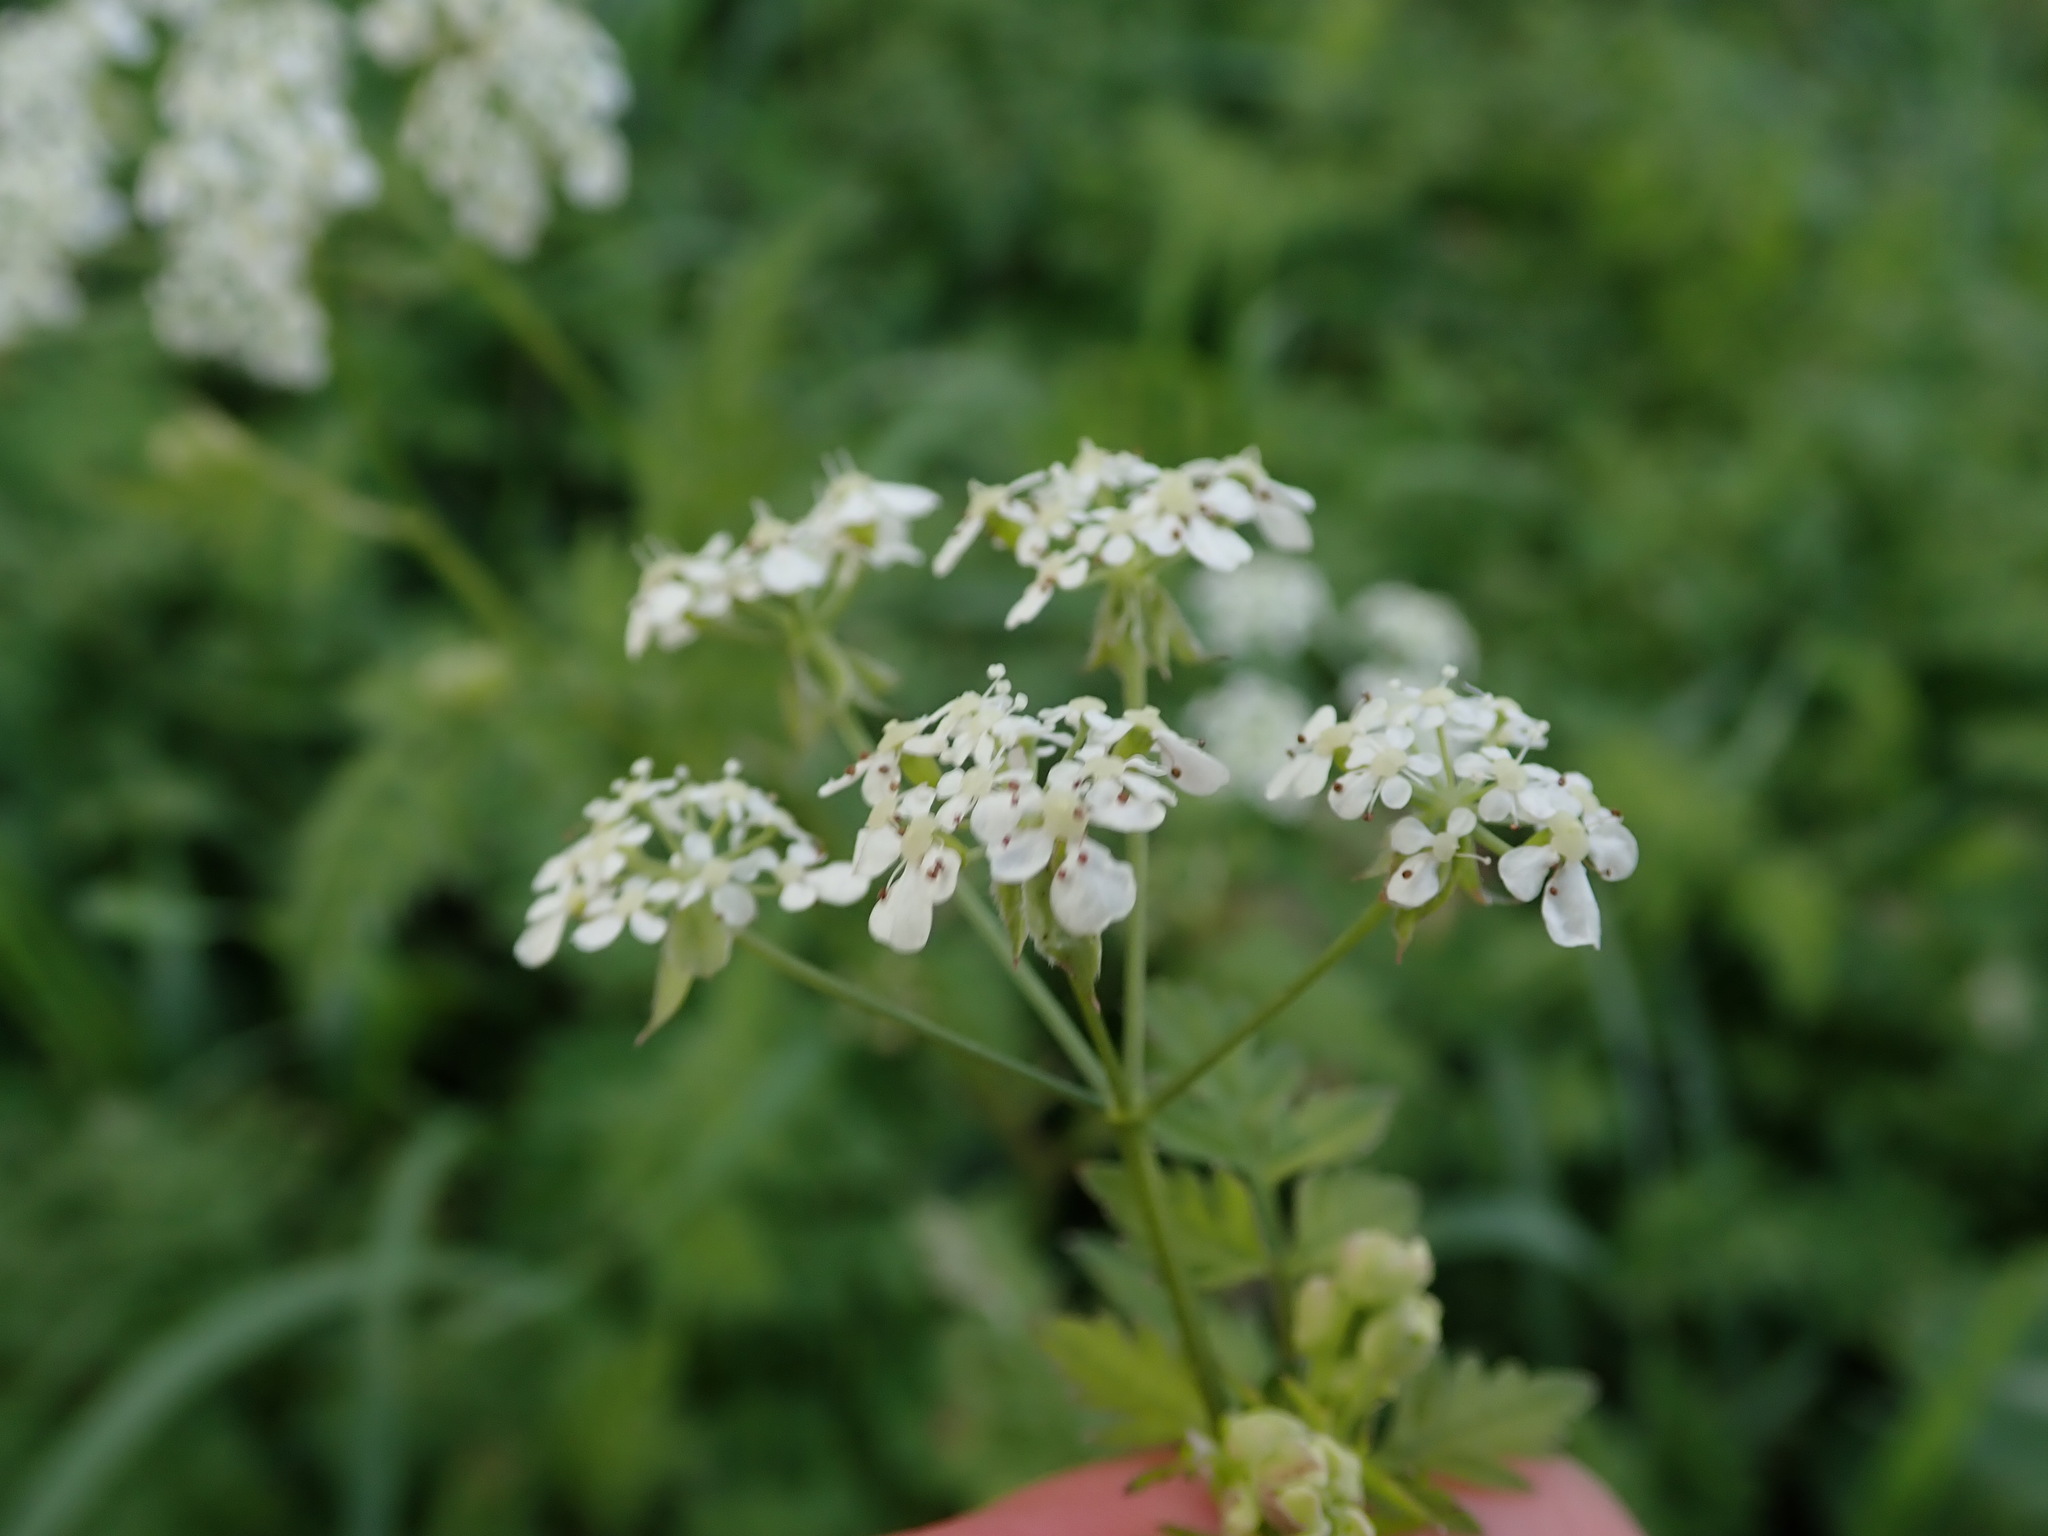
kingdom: Plantae
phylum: Tracheophyta
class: Magnoliopsida
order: Apiales
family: Apiaceae
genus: Anthriscus
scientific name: Anthriscus sylvestris
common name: Cow parsley
